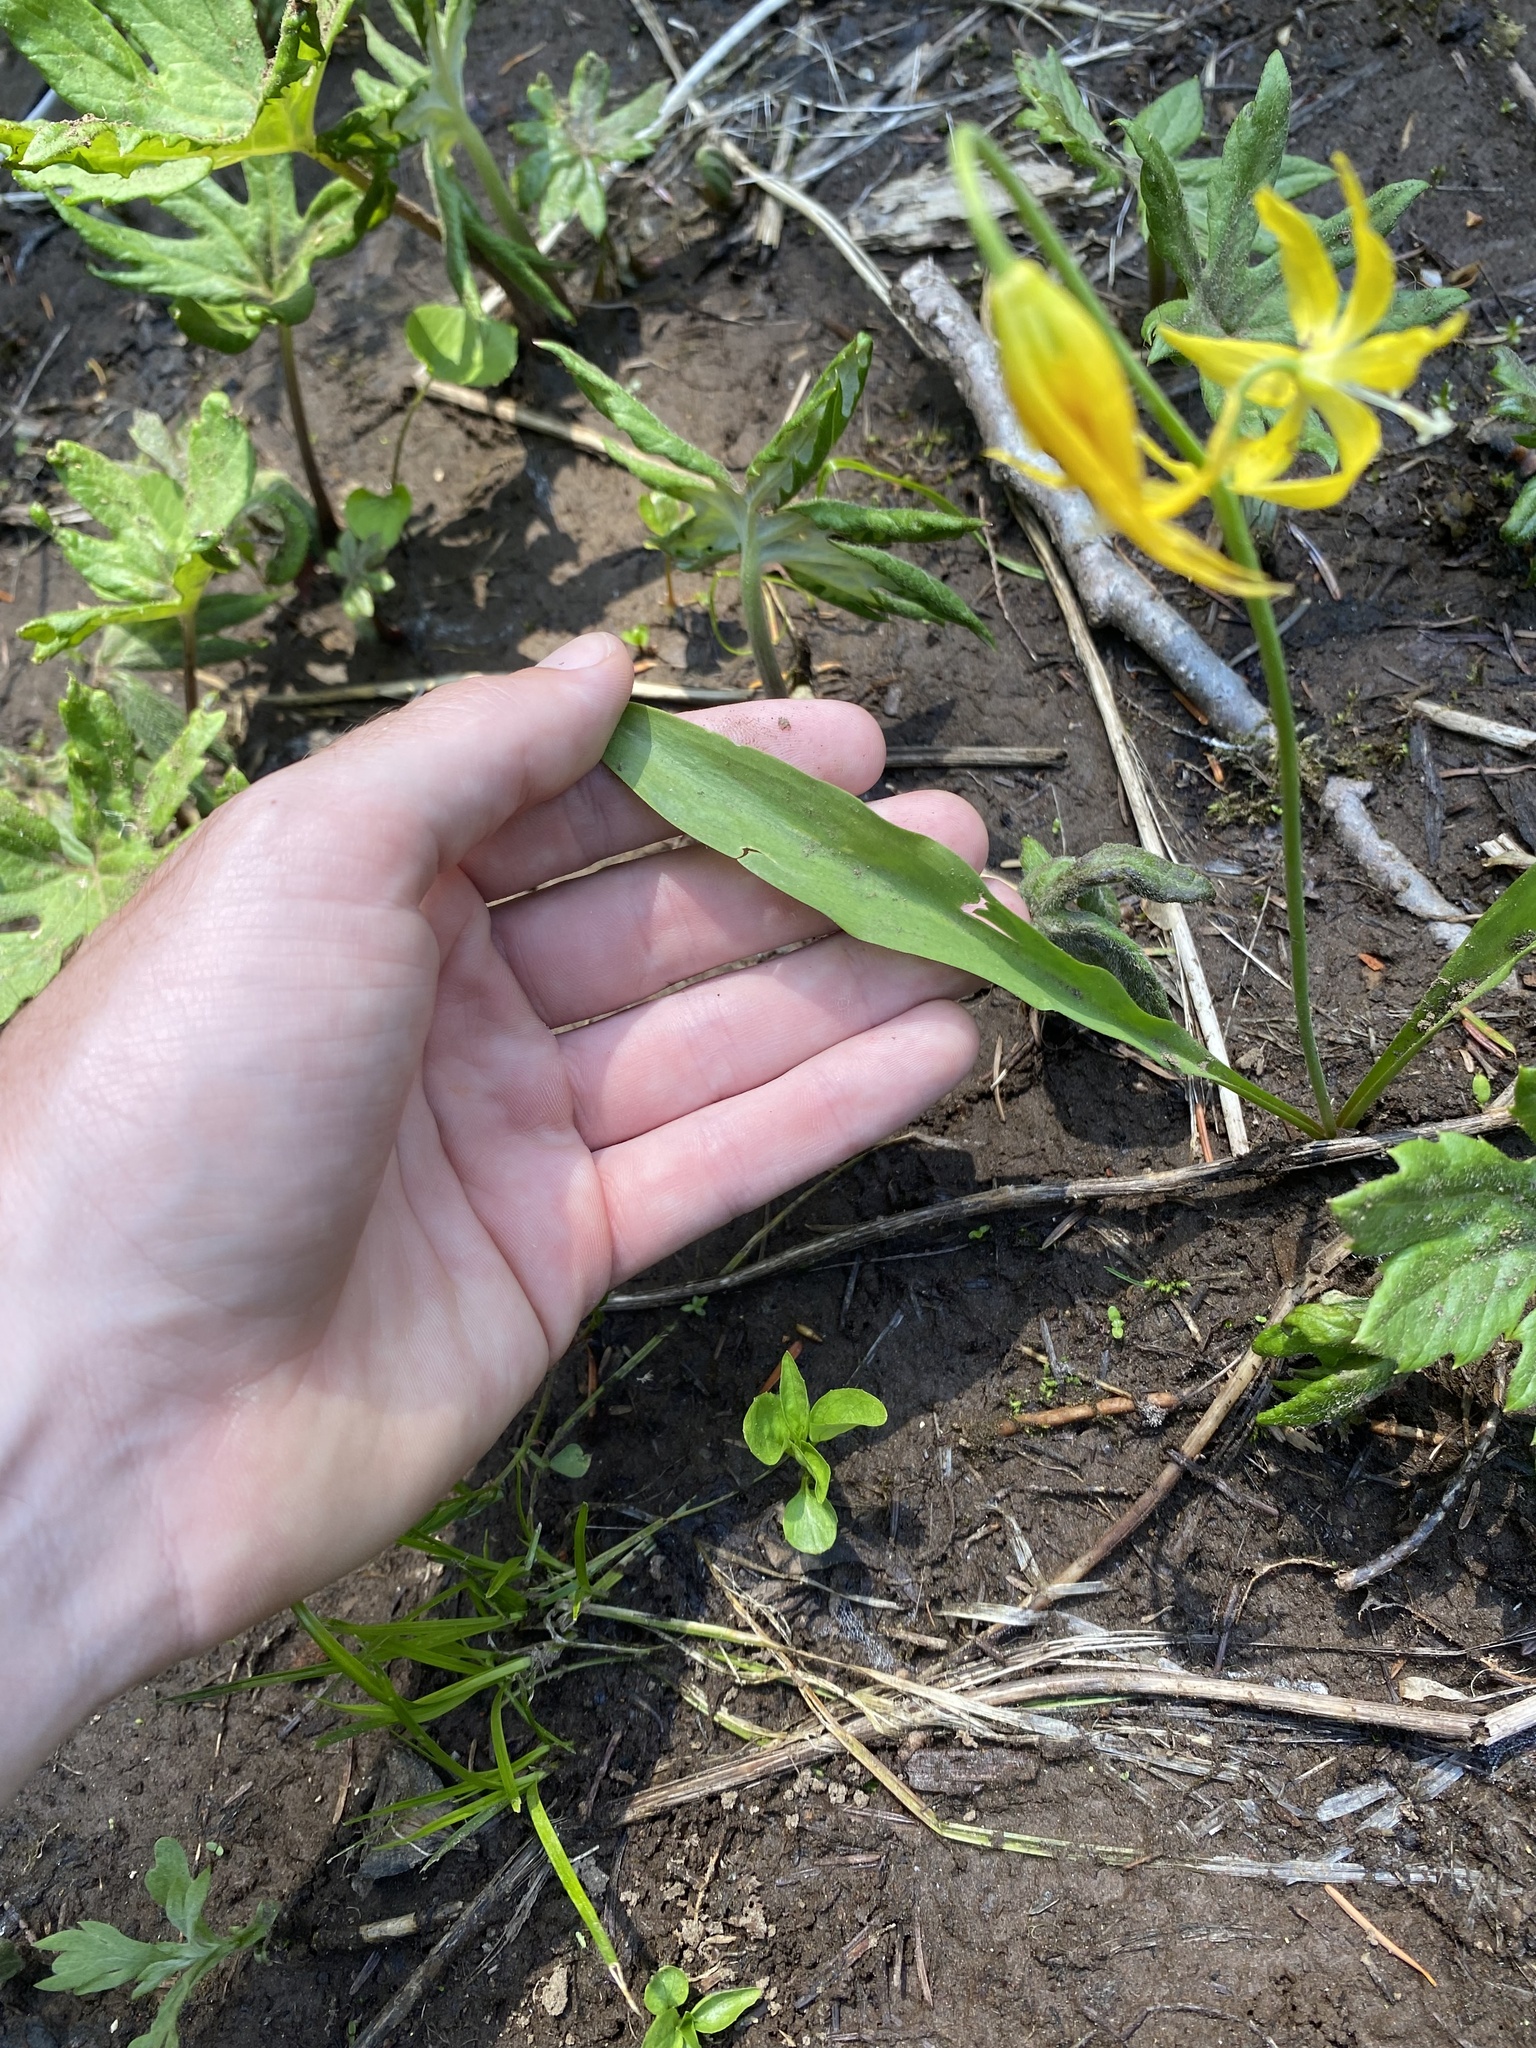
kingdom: Plantae
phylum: Tracheophyta
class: Liliopsida
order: Liliales
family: Liliaceae
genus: Erythronium
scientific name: Erythronium grandiflorum
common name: Avalanche-lily
